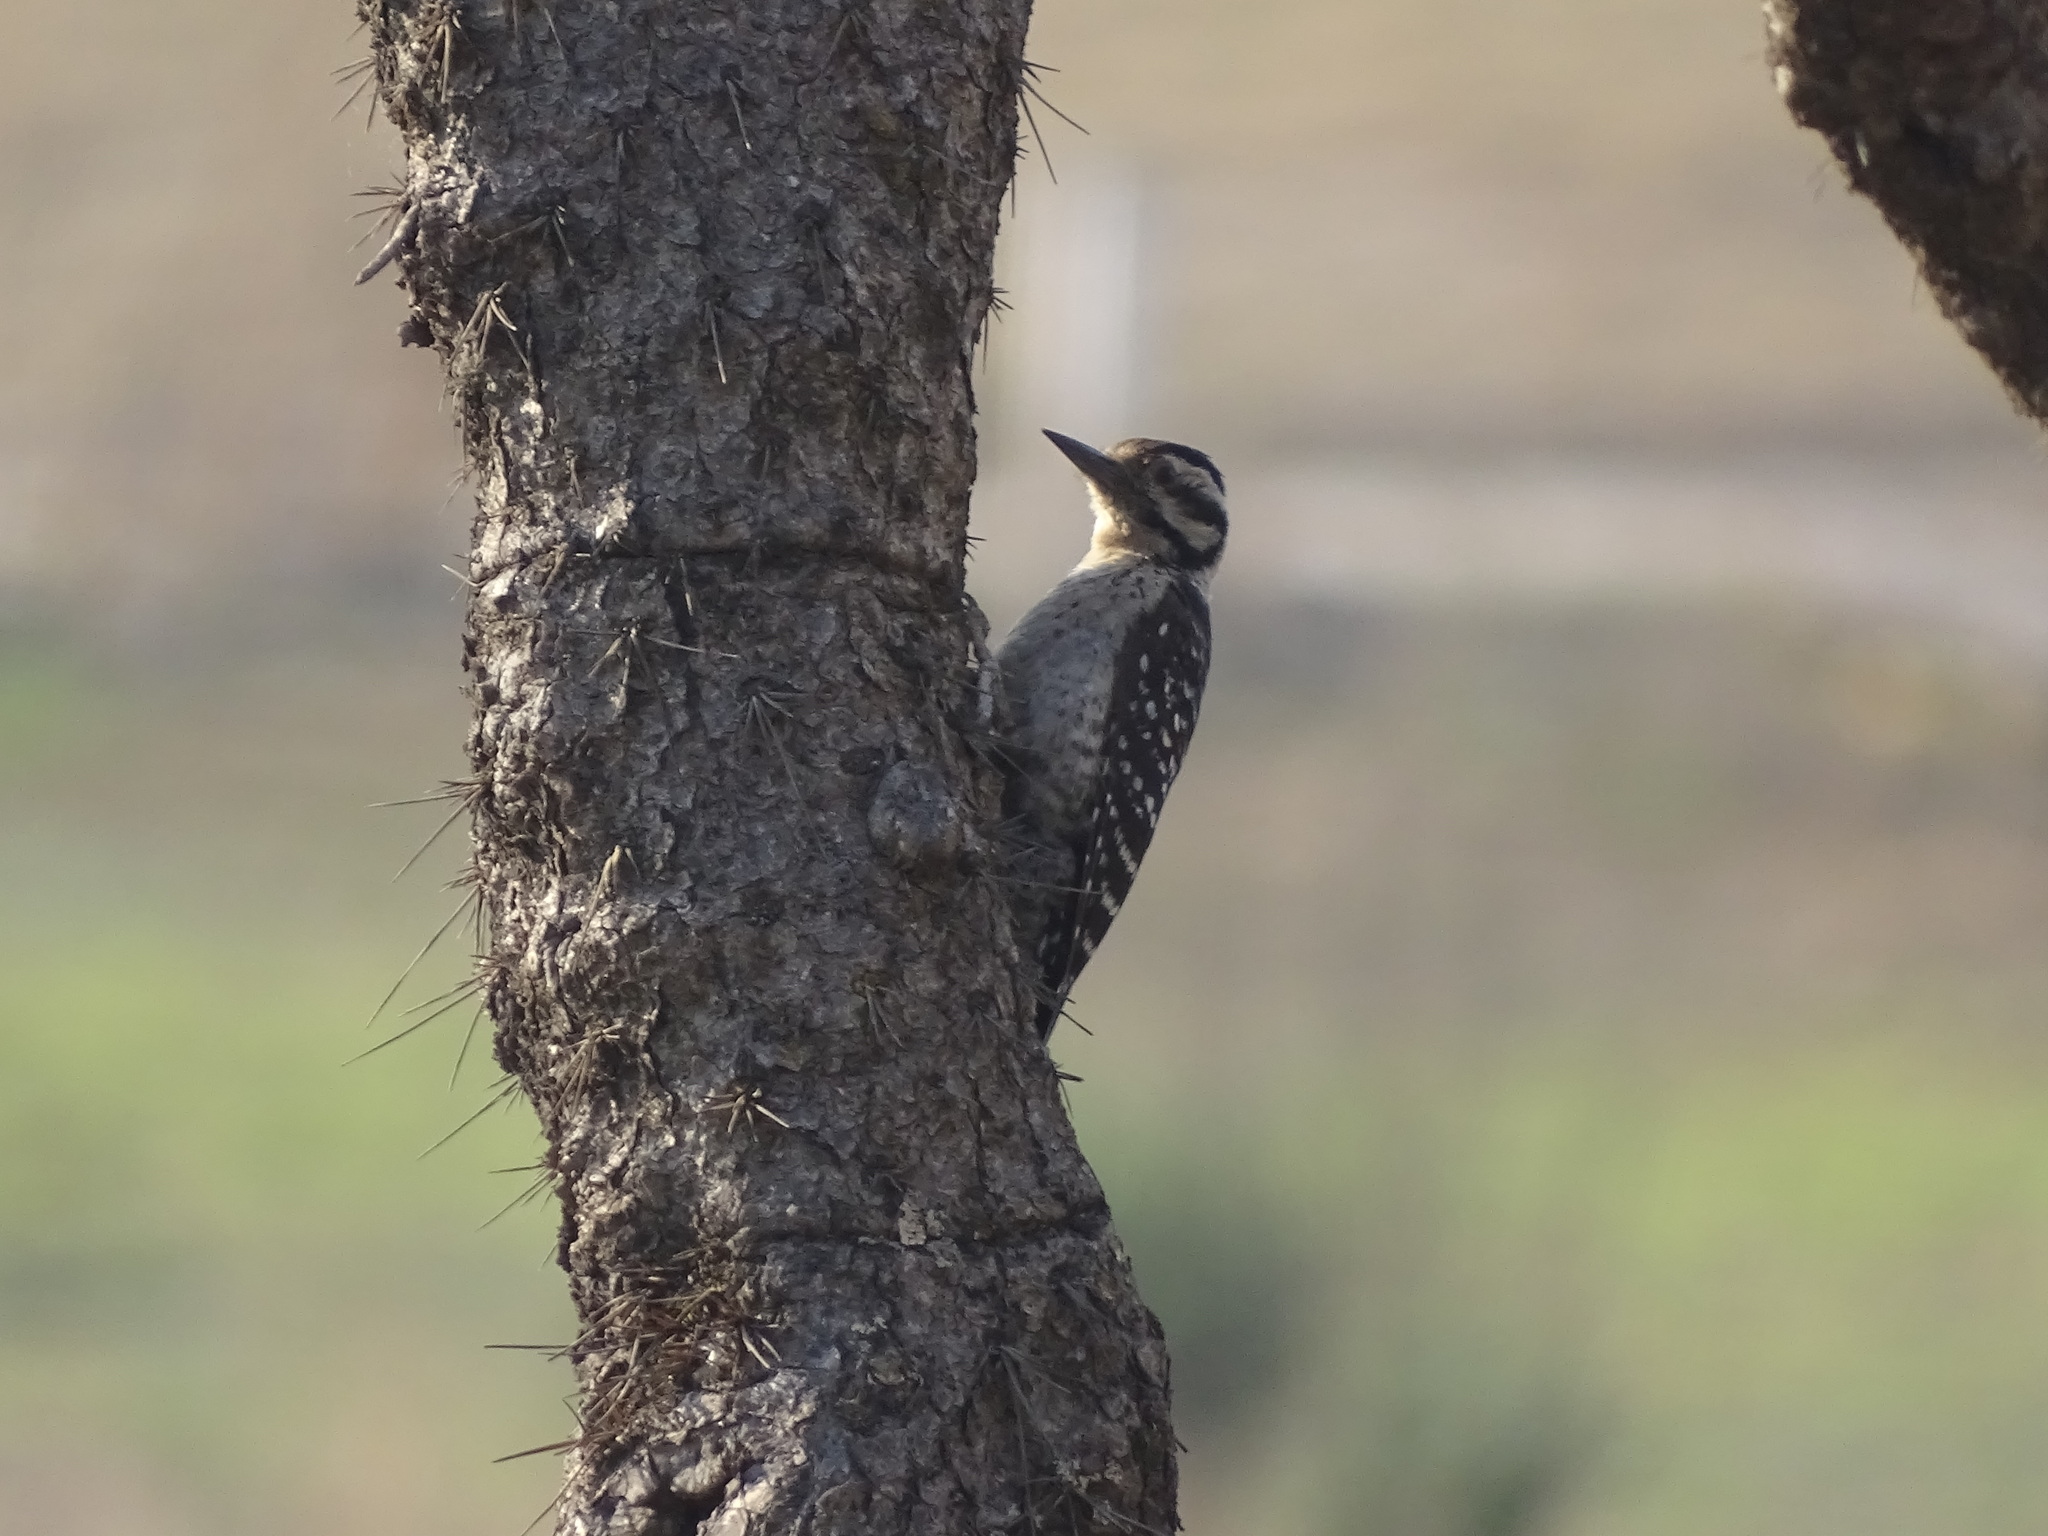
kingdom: Animalia
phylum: Chordata
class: Aves
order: Piciformes
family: Picidae
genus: Dryobates
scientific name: Dryobates scalaris
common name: Ladder-backed woodpecker
